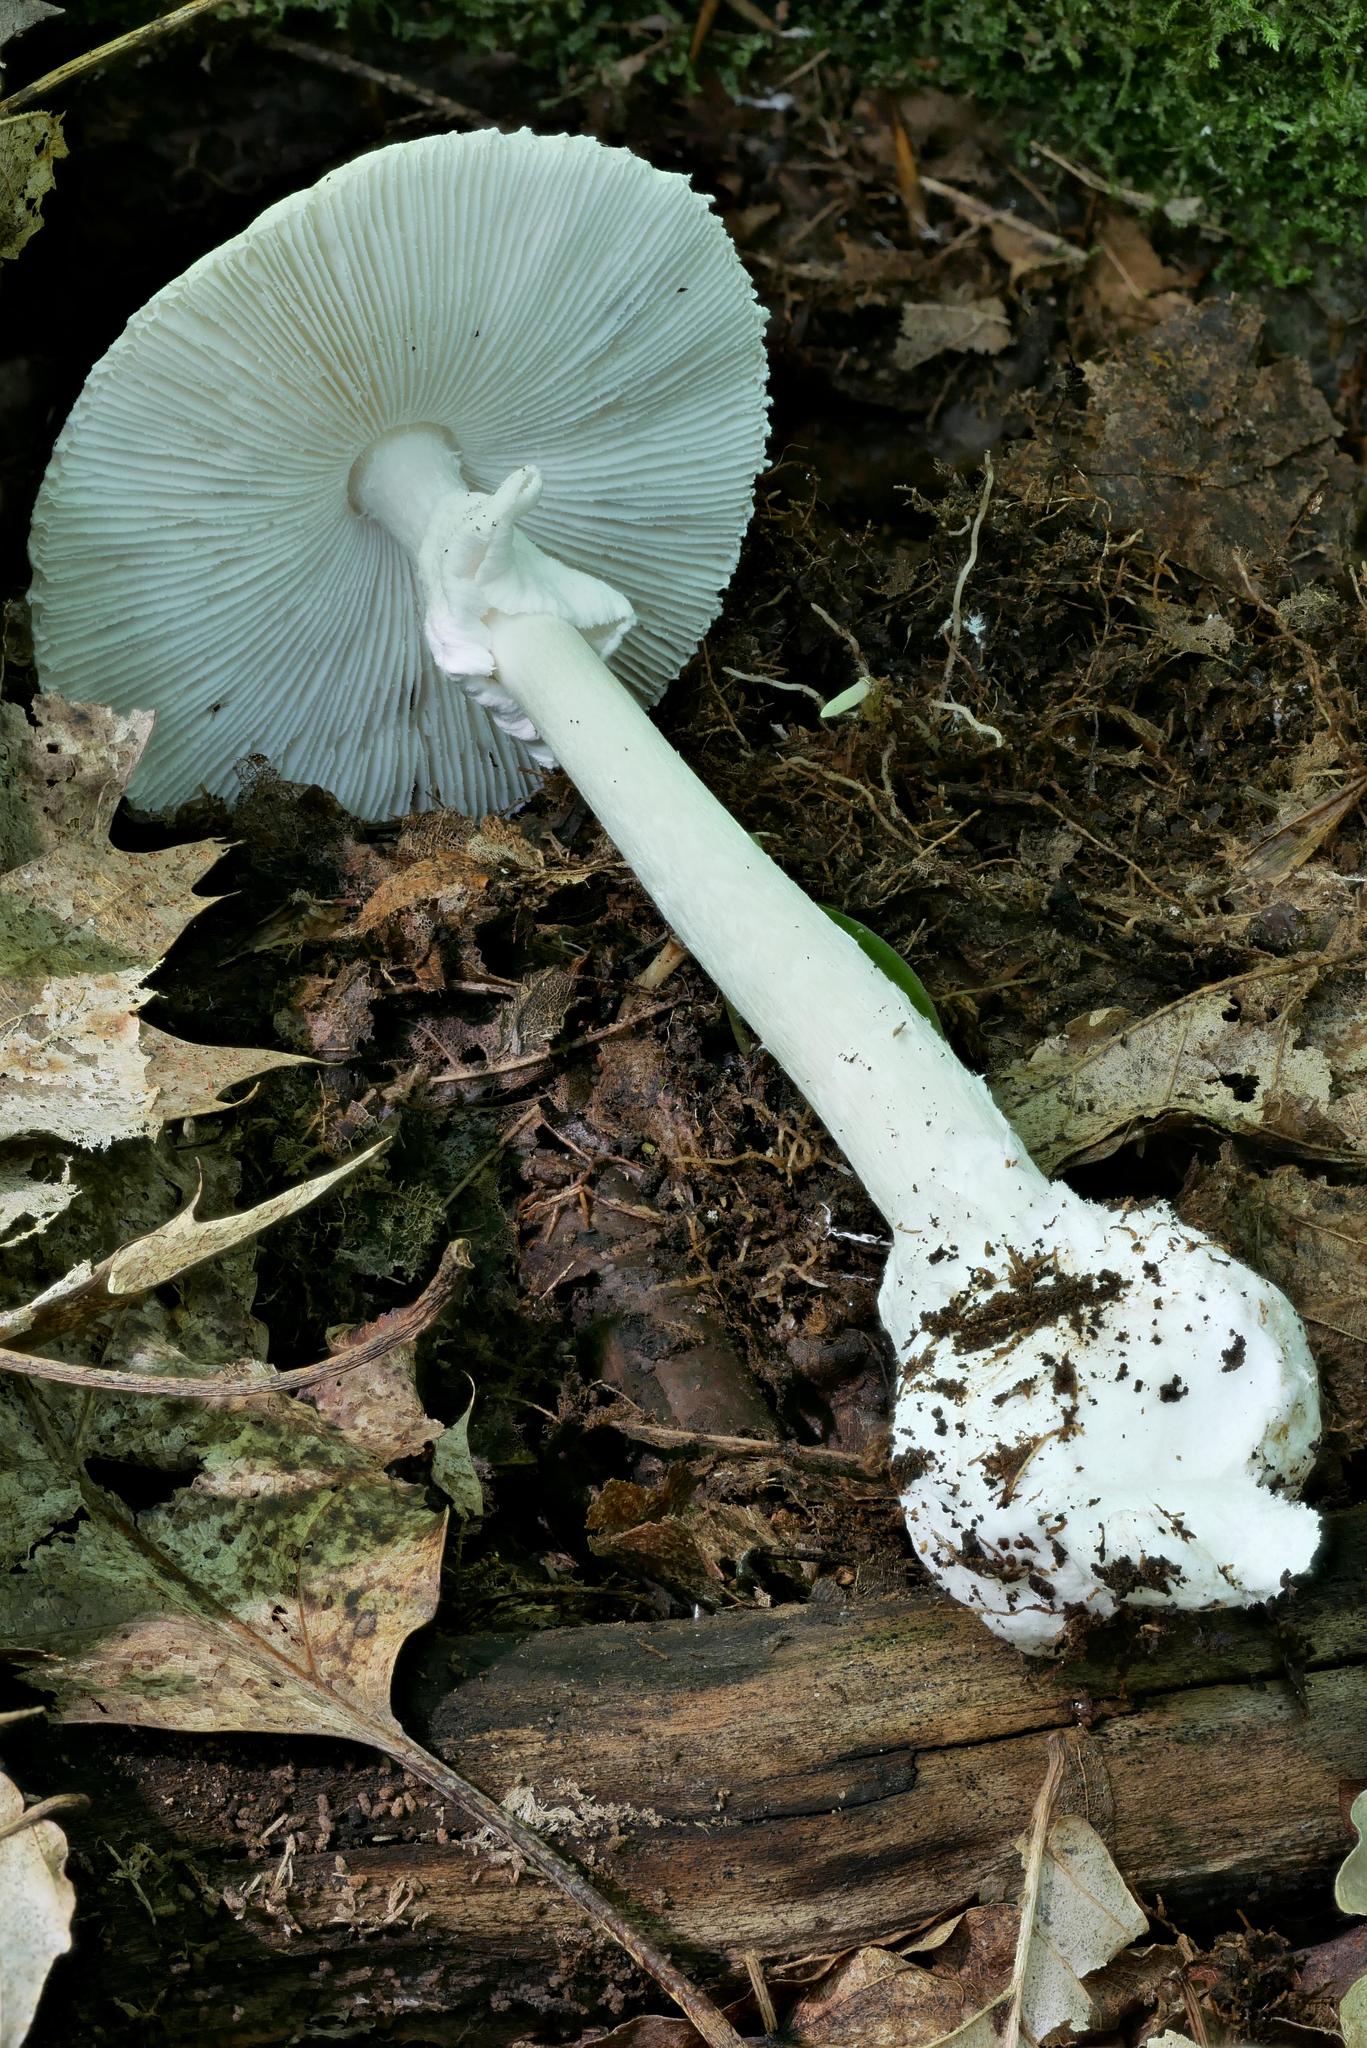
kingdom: Fungi
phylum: Basidiomycota
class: Agaricomycetes
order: Agaricales
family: Amanitaceae
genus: Amanita
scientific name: Amanita bisporigera
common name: Eastern north american destroying angel
